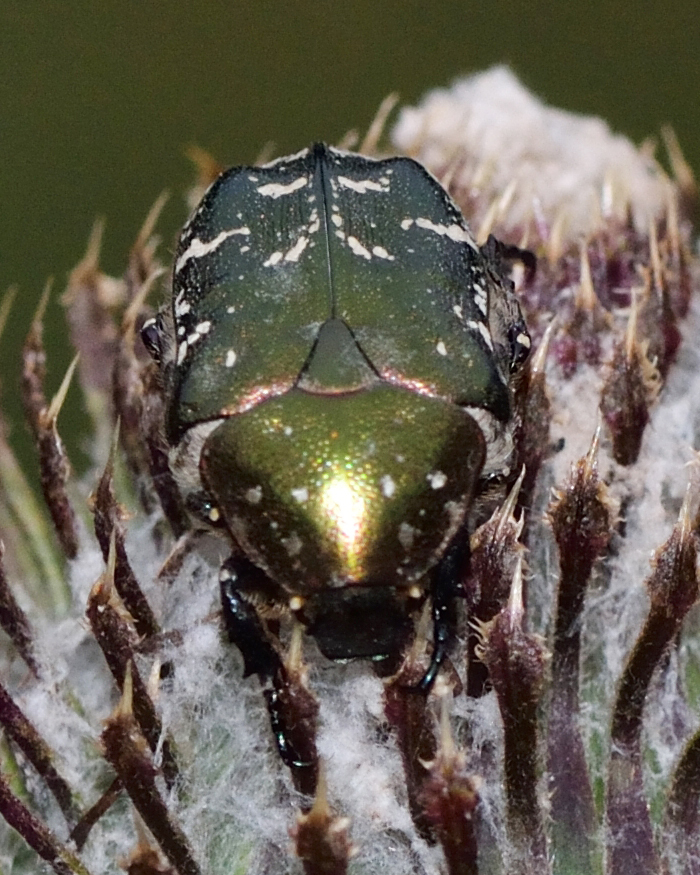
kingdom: Animalia
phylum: Arthropoda
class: Insecta
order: Coleoptera
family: Scarabaeidae
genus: Protaetia
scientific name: Protaetia cuprea
